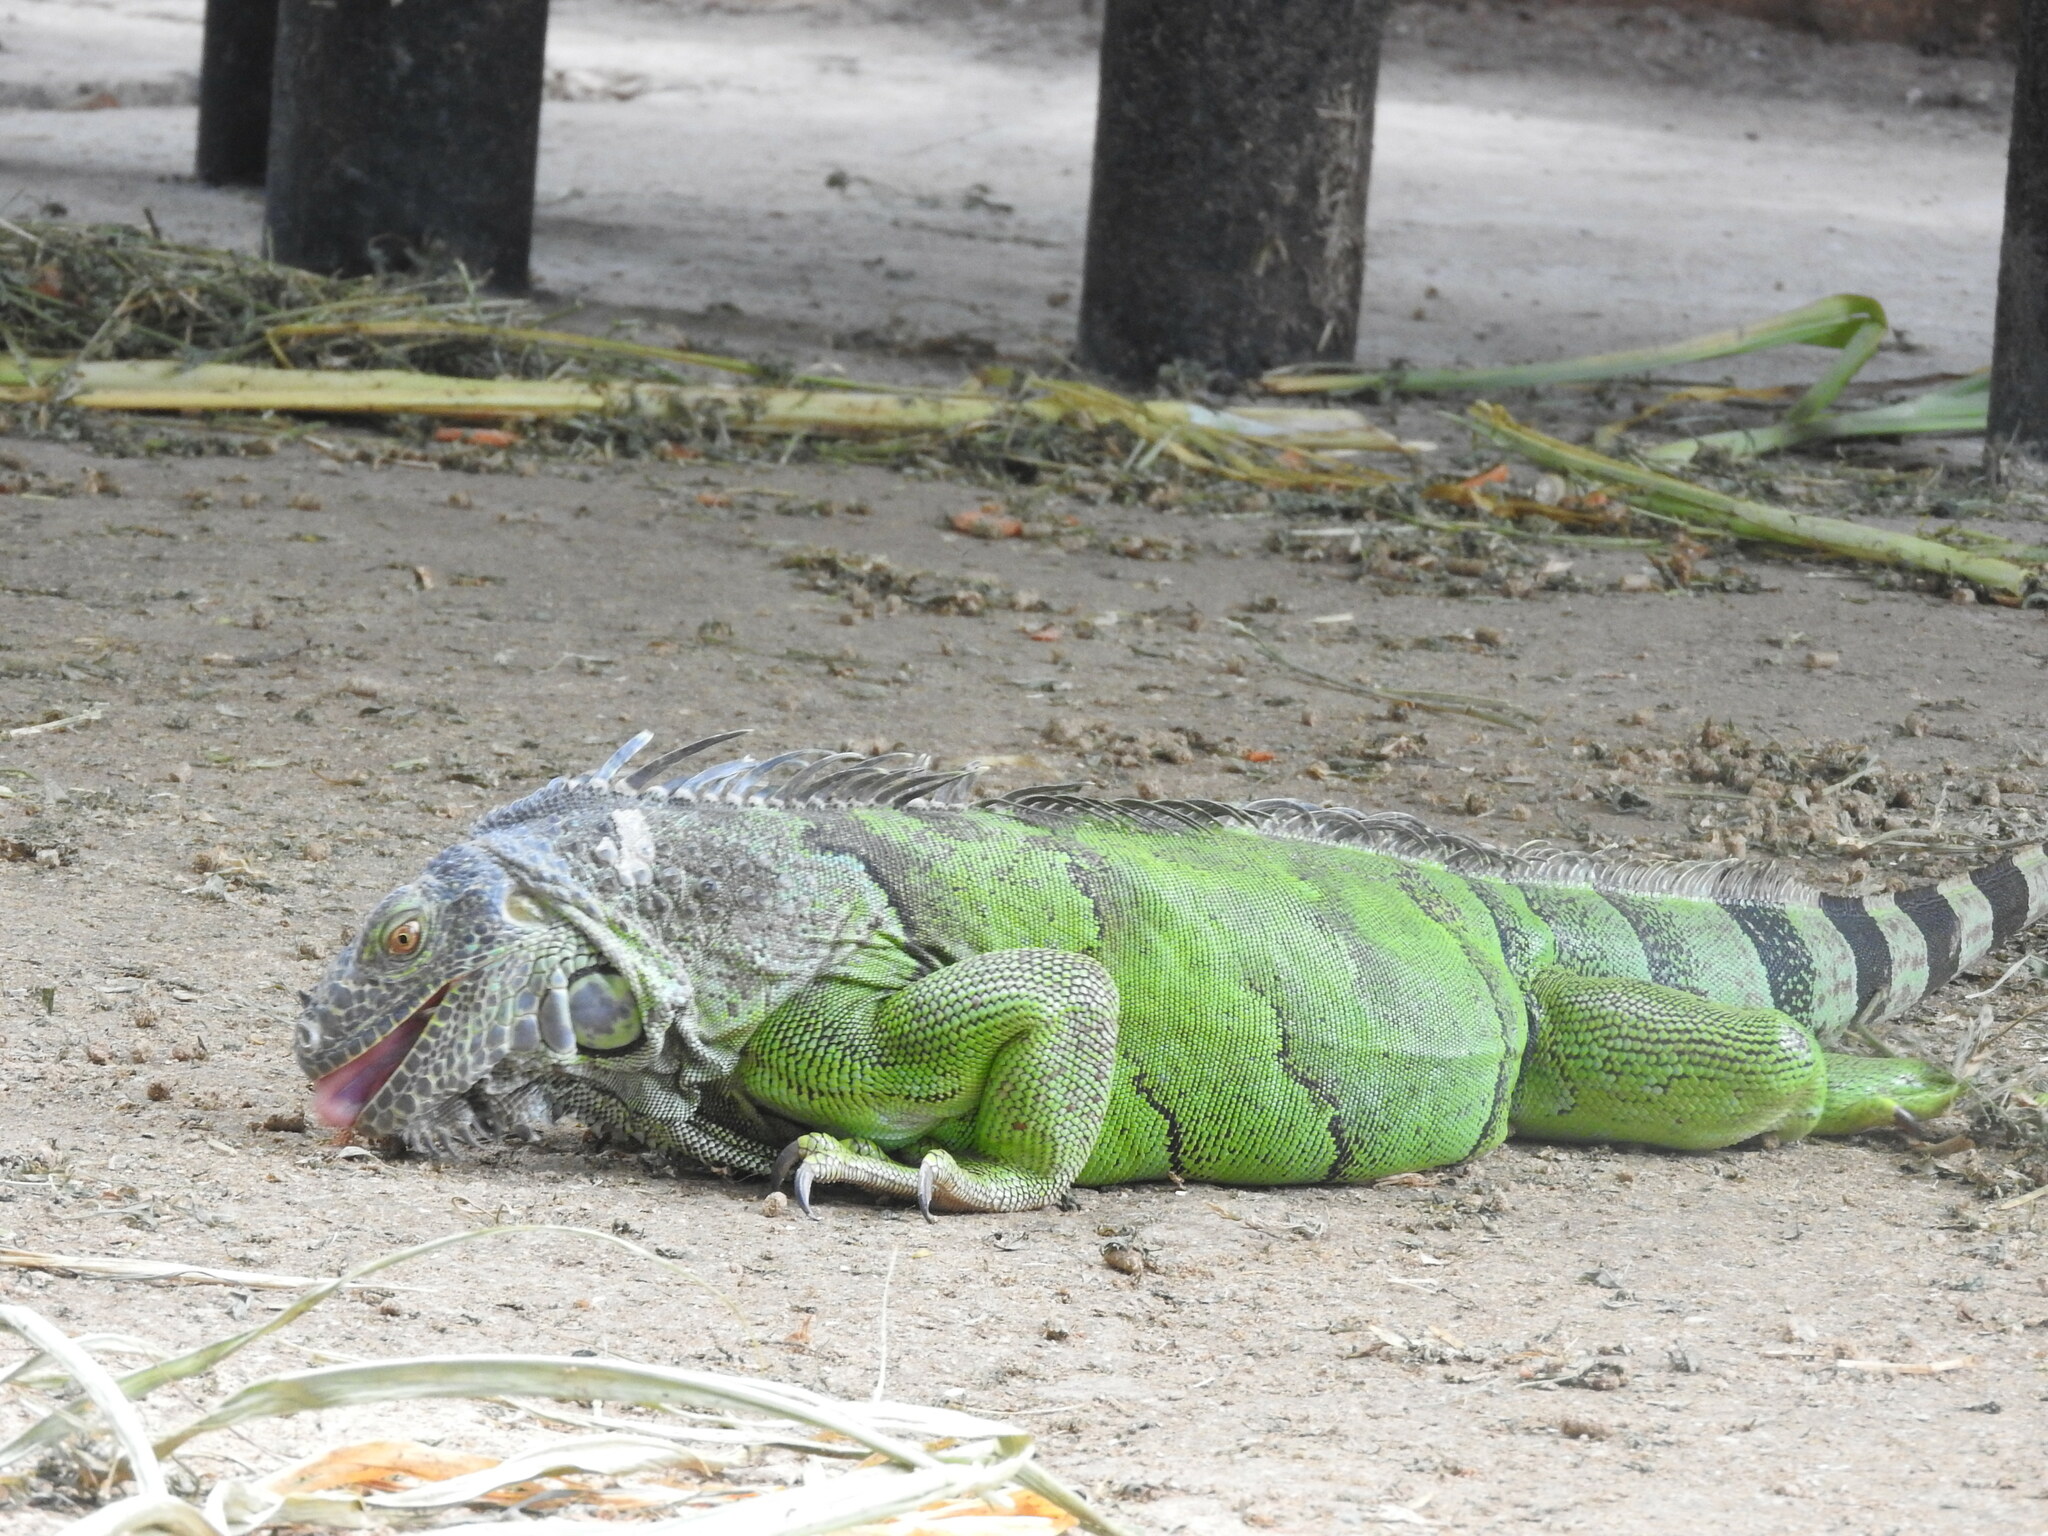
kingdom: Animalia
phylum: Chordata
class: Squamata
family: Iguanidae
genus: Iguana
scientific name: Iguana iguana
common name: Green iguana
